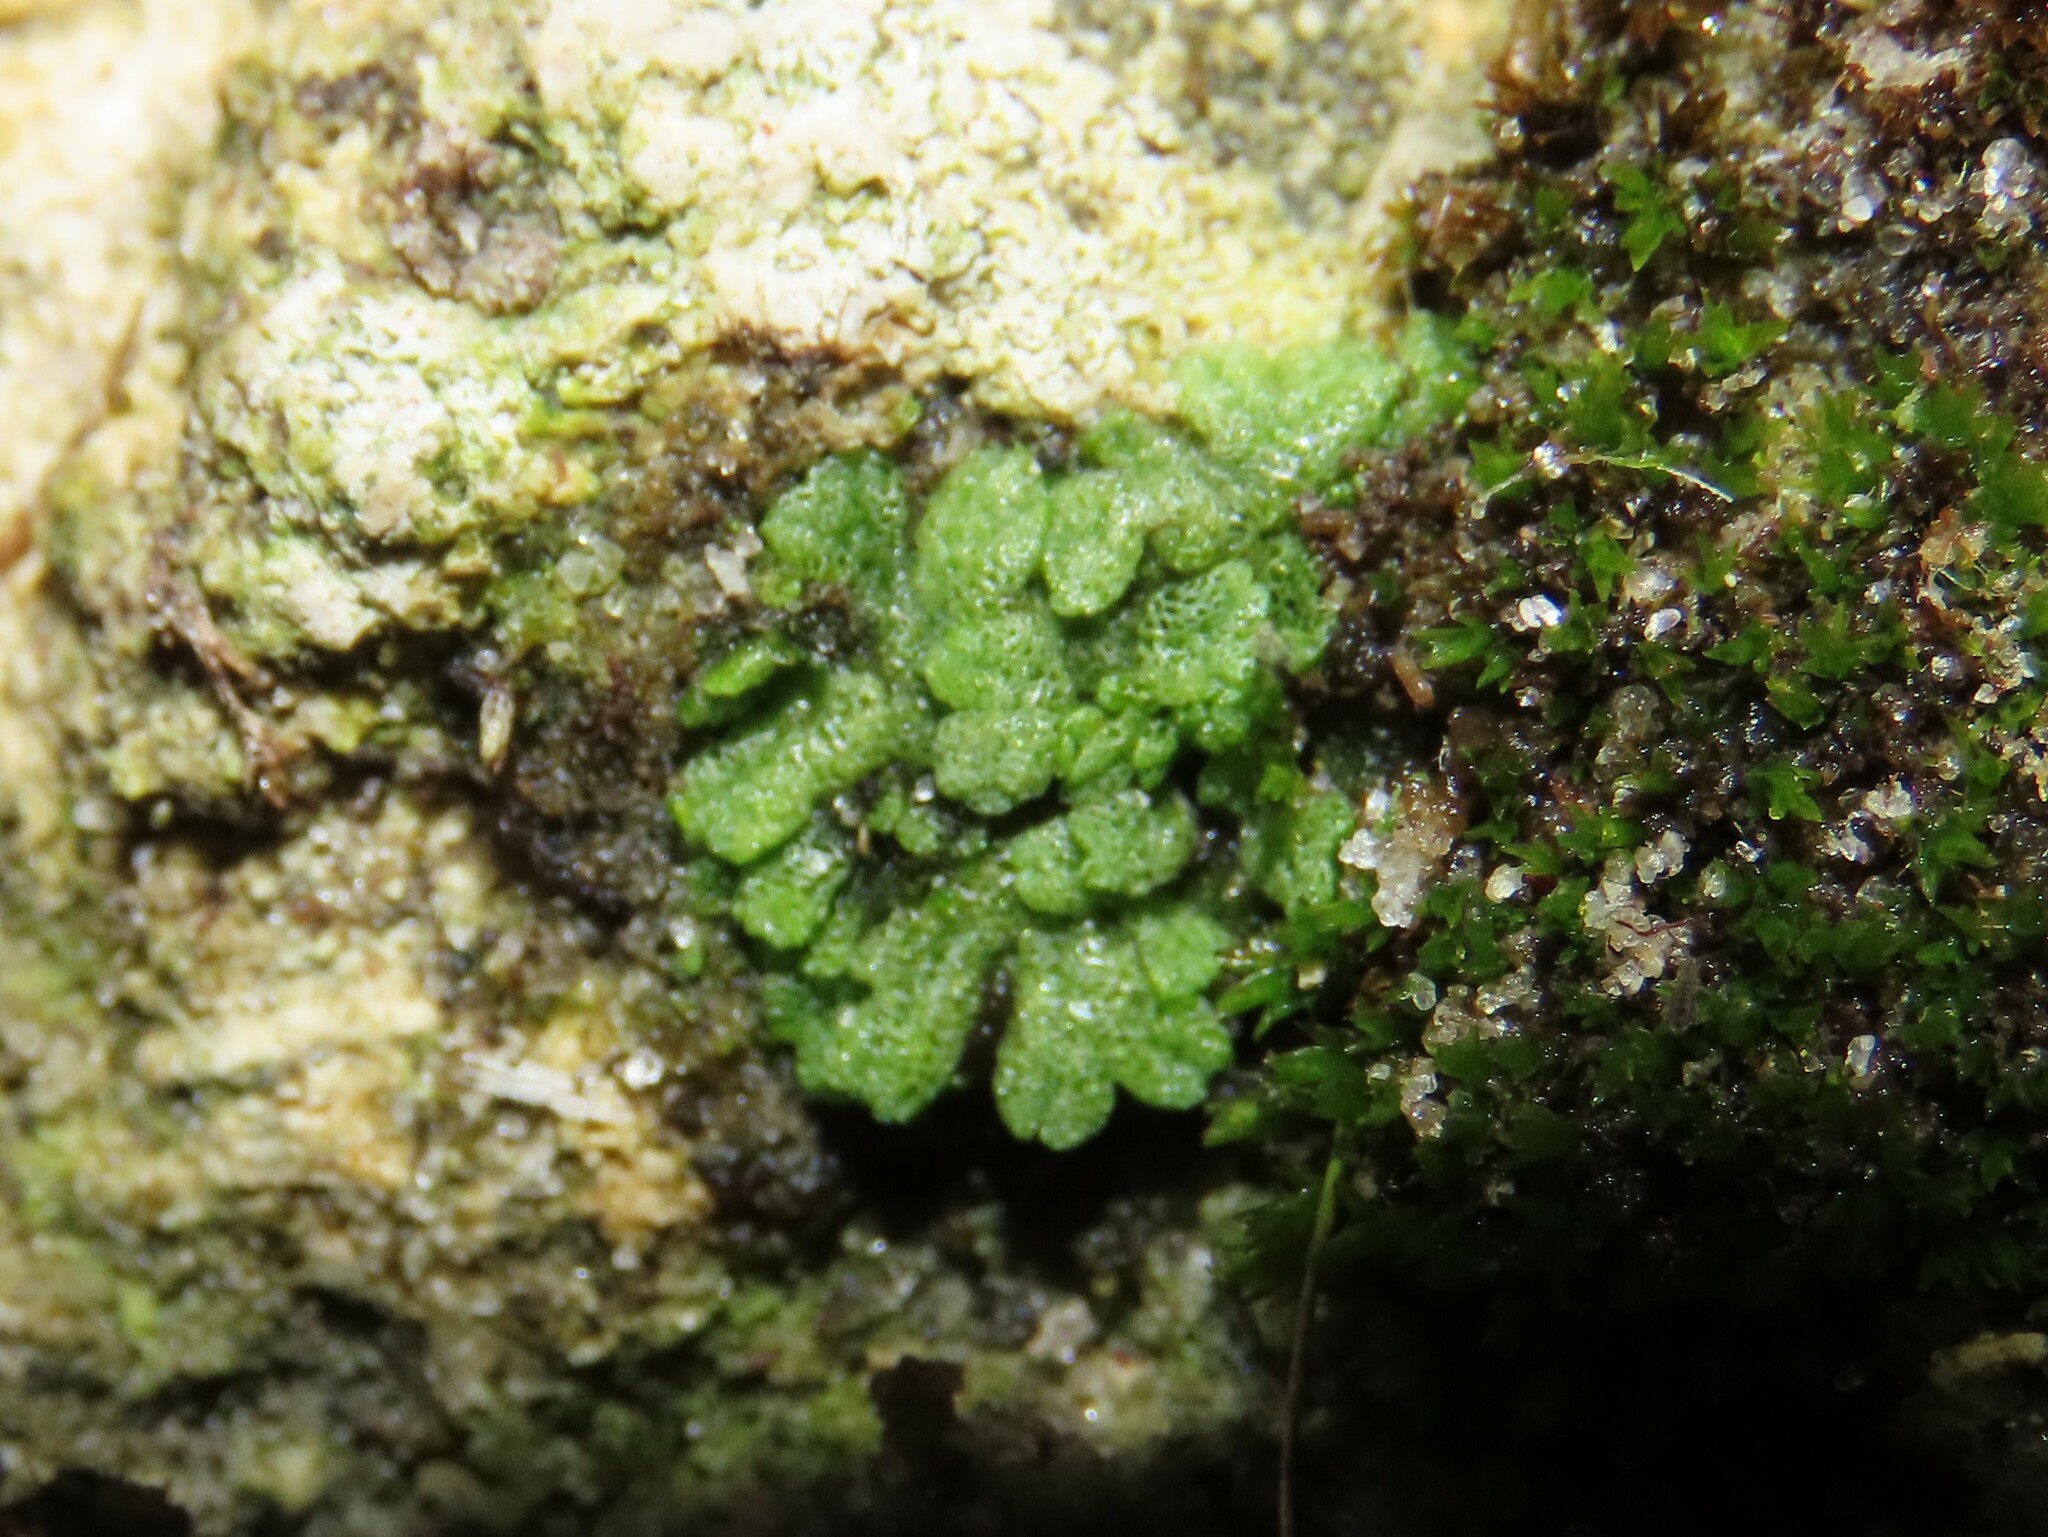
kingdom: Plantae
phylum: Marchantiophyta
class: Marchantiopsida
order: Marchantiales
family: Ricciaceae
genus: Riccia
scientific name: Riccia cavernosa
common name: Cavernous crystalwort
